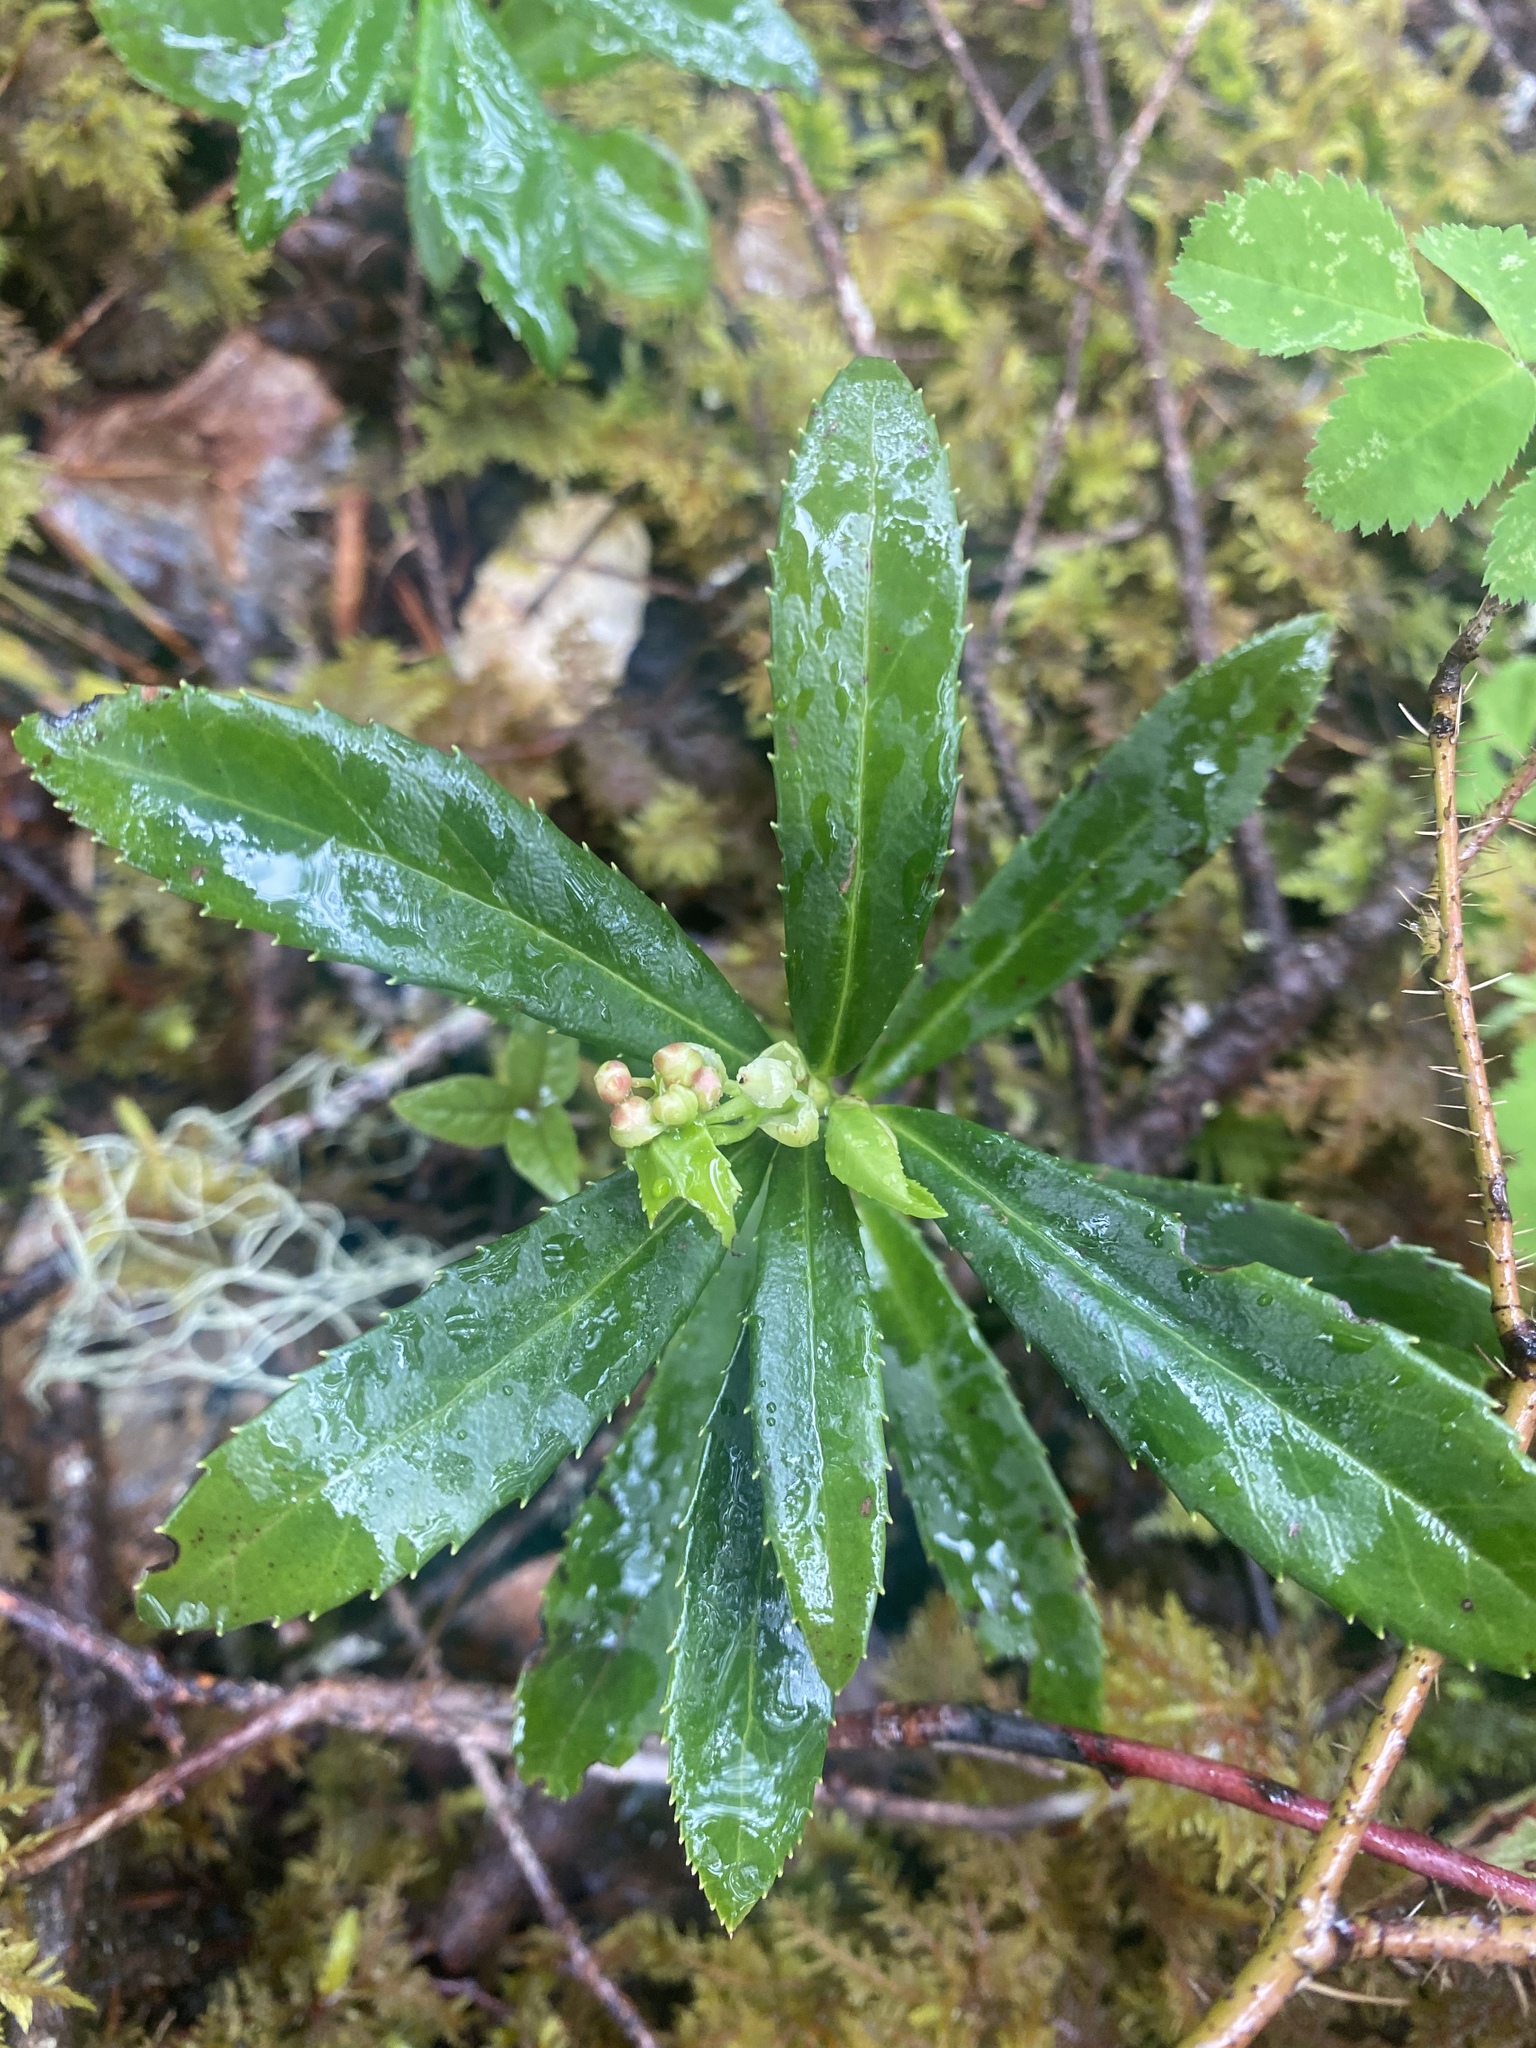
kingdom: Plantae
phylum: Tracheophyta
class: Magnoliopsida
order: Ericales
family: Ericaceae
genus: Chimaphila
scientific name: Chimaphila umbellata
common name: Pipsissewa
